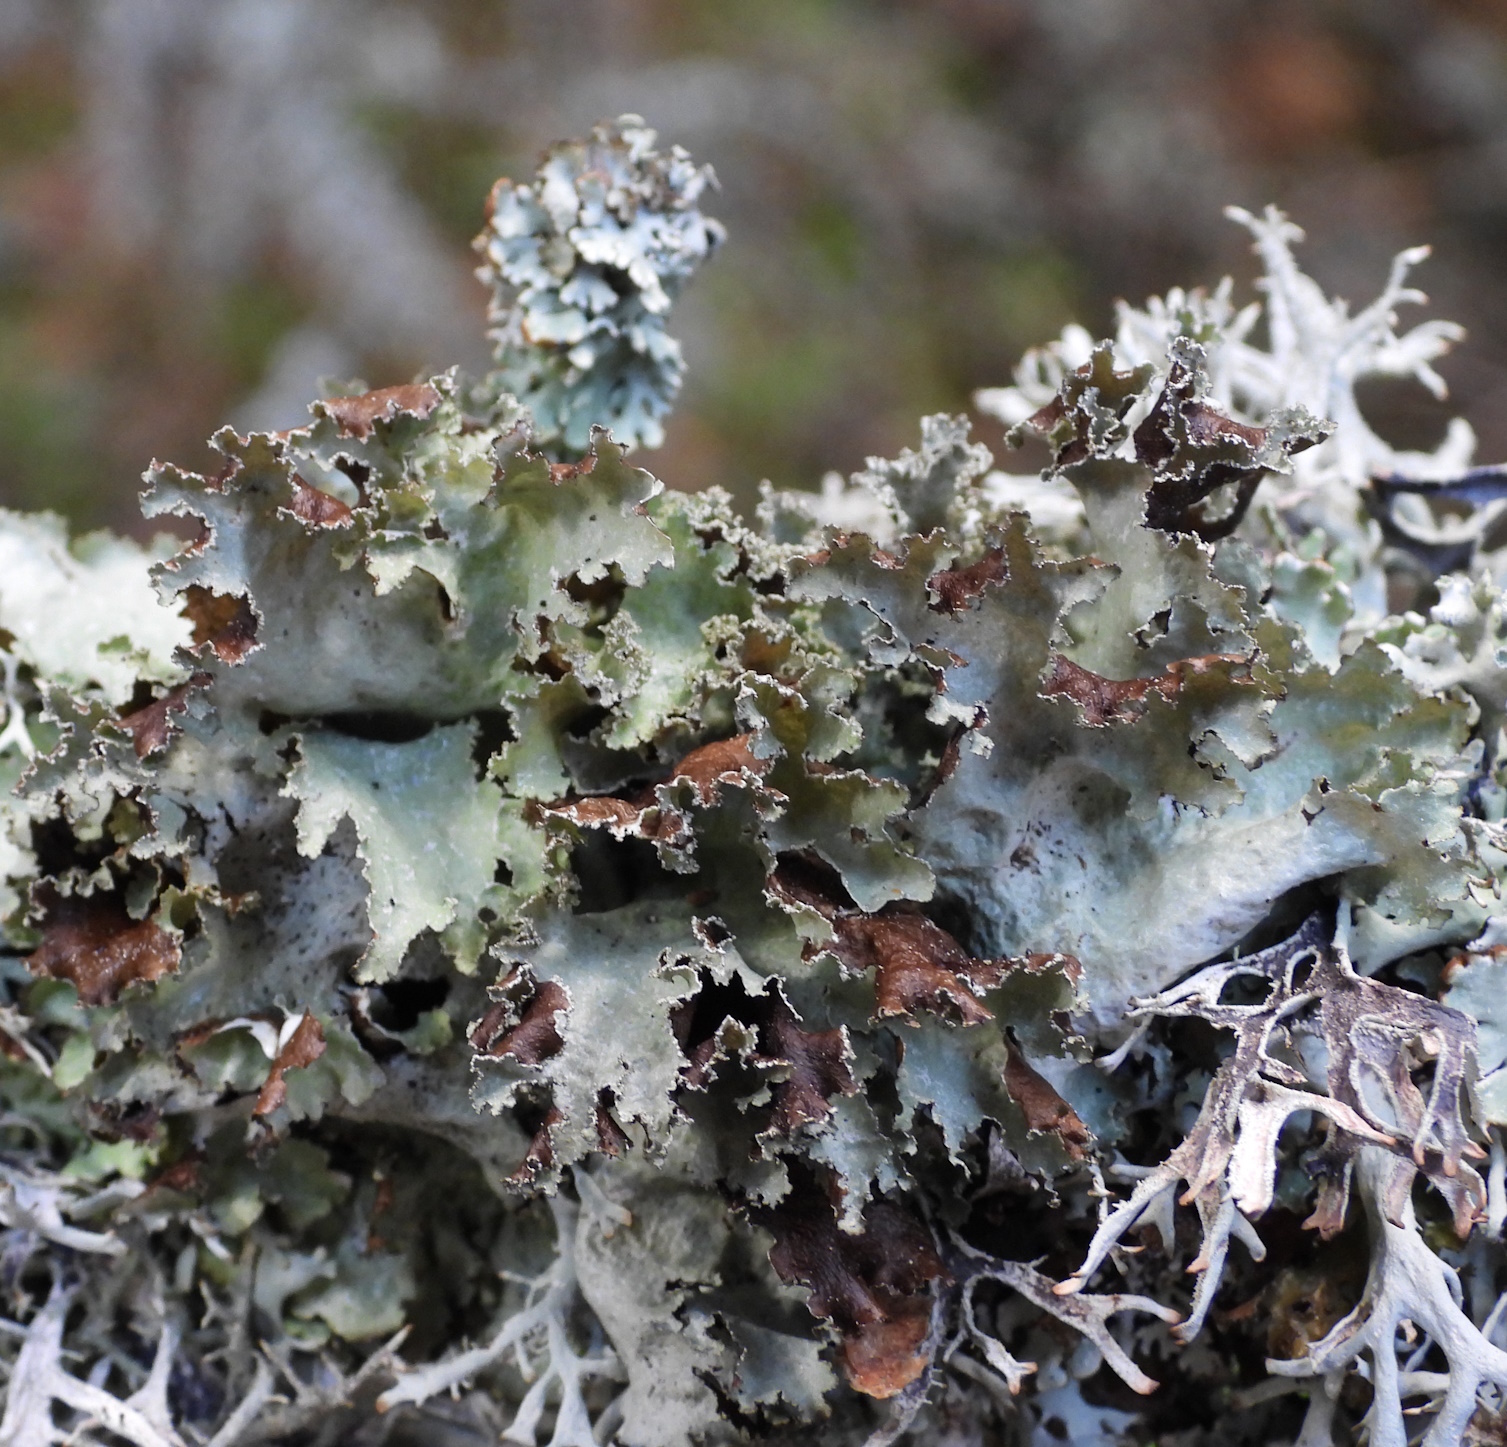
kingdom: Fungi
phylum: Ascomycota
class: Lecanoromycetes
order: Lecanorales
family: Parmeliaceae
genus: Platismatia
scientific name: Platismatia glauca
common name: Varied rag lichen
